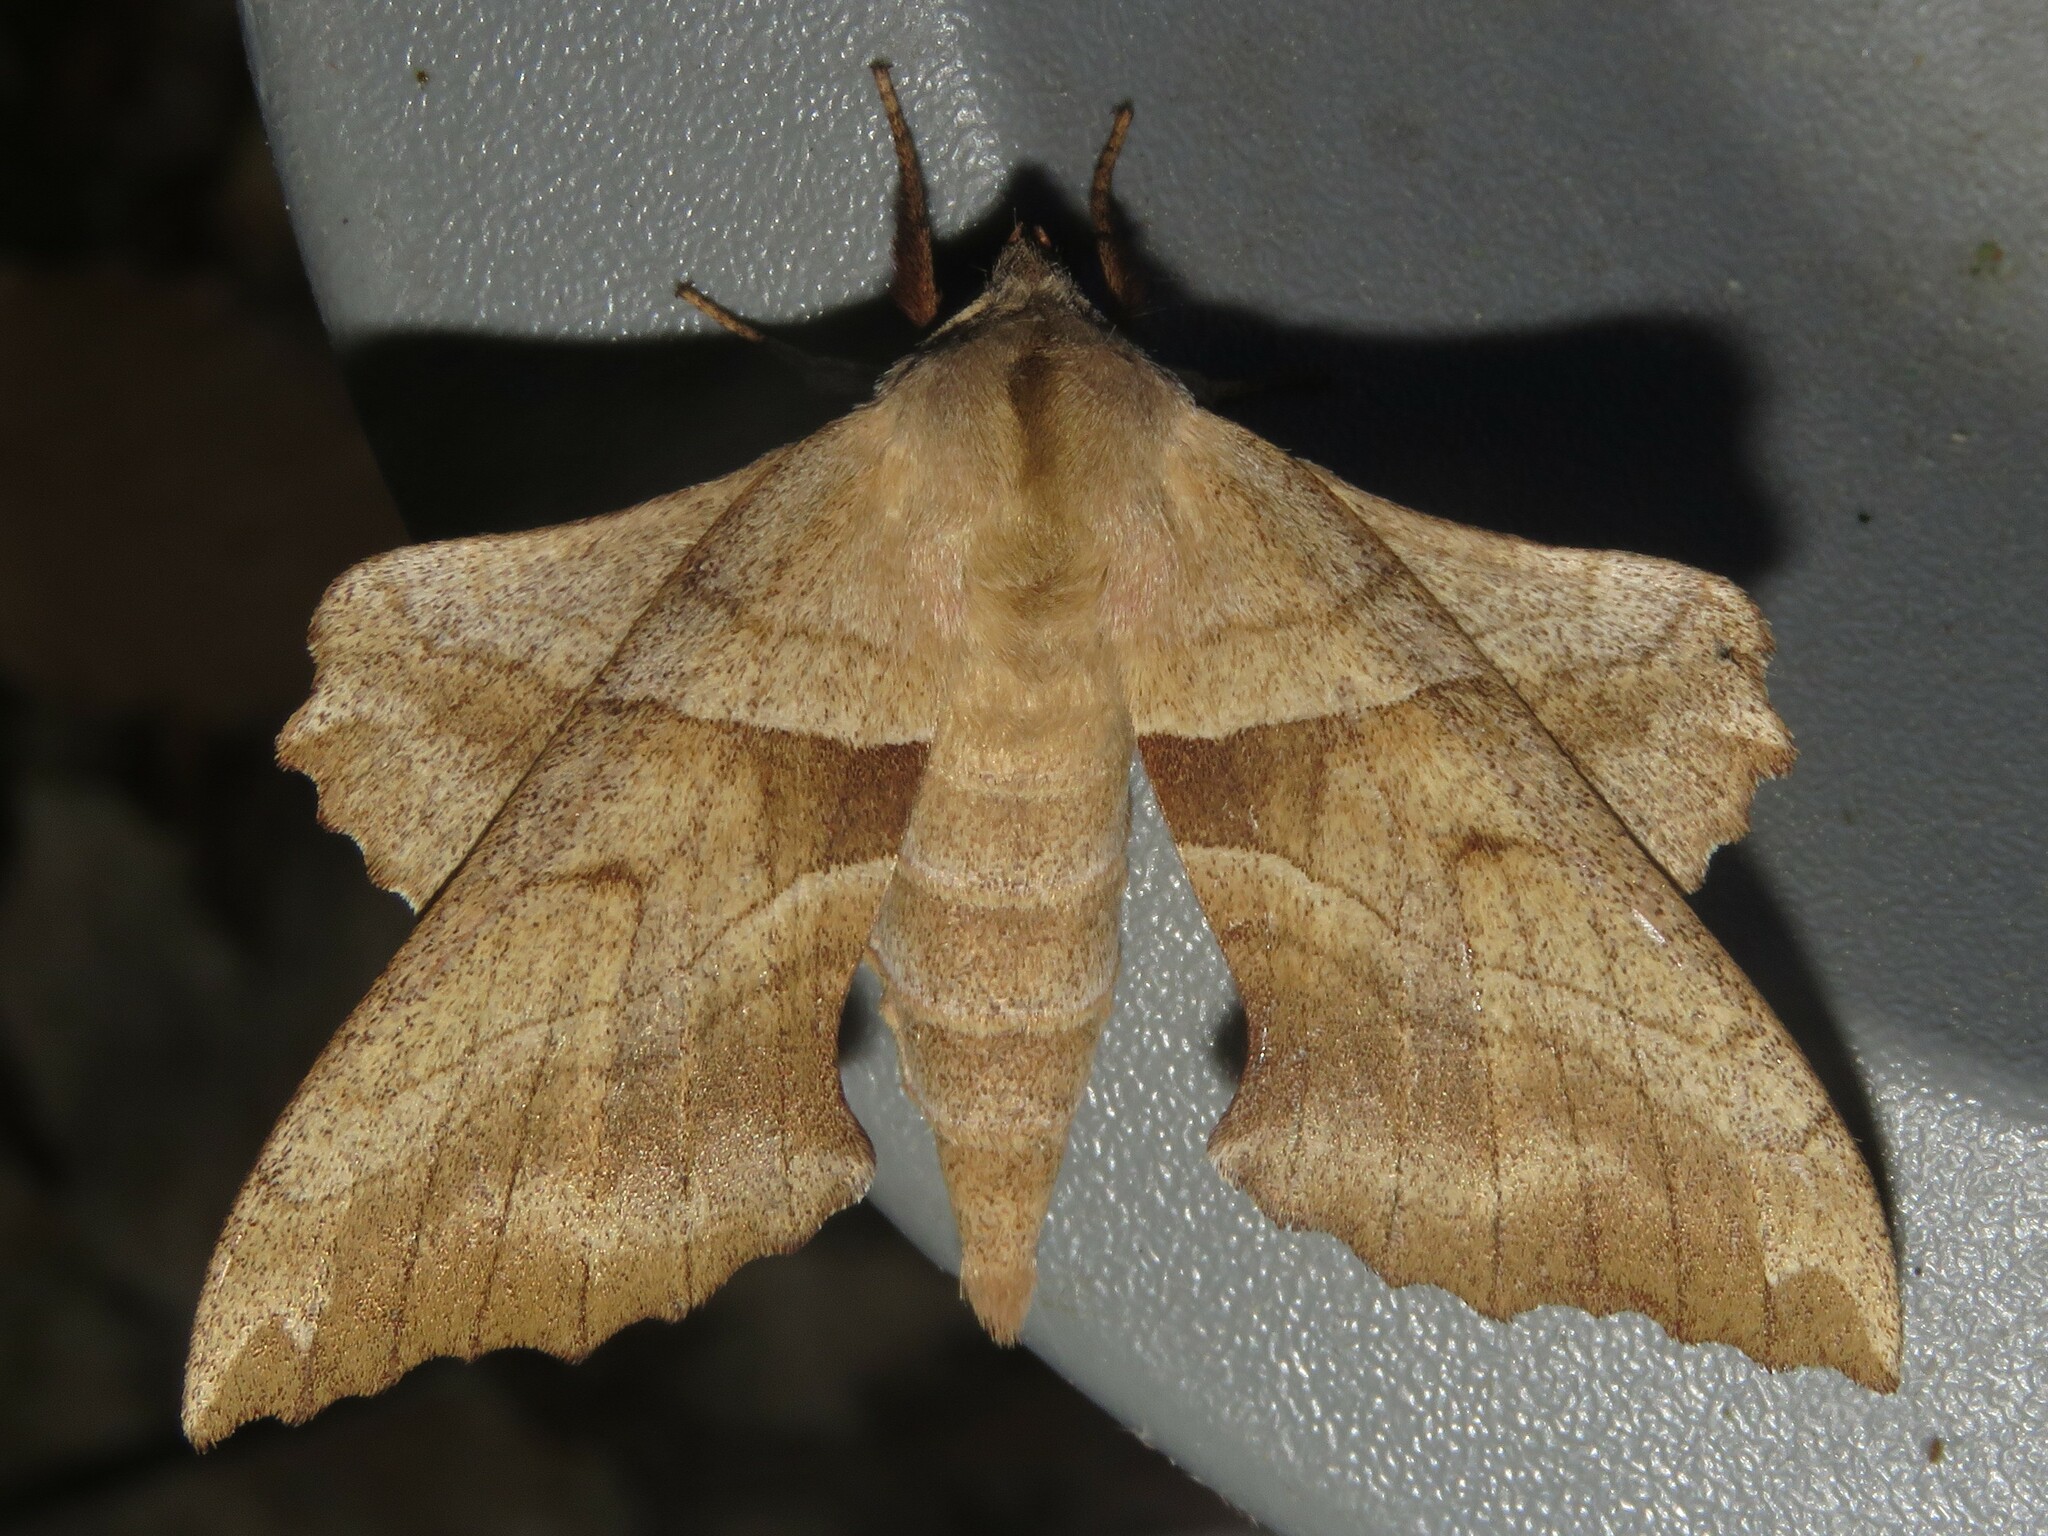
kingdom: Animalia
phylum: Arthropoda
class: Insecta
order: Lepidoptera
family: Sphingidae
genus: Amorpha
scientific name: Amorpha juglandis
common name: Walnut sphinx
